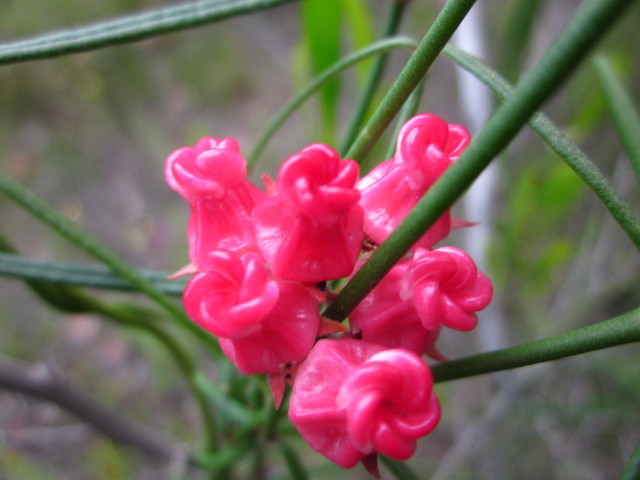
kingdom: Plantae
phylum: Tracheophyta
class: Magnoliopsida
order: Gentianales
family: Apocynaceae
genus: Microloma
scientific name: Microloma tenuifolium
